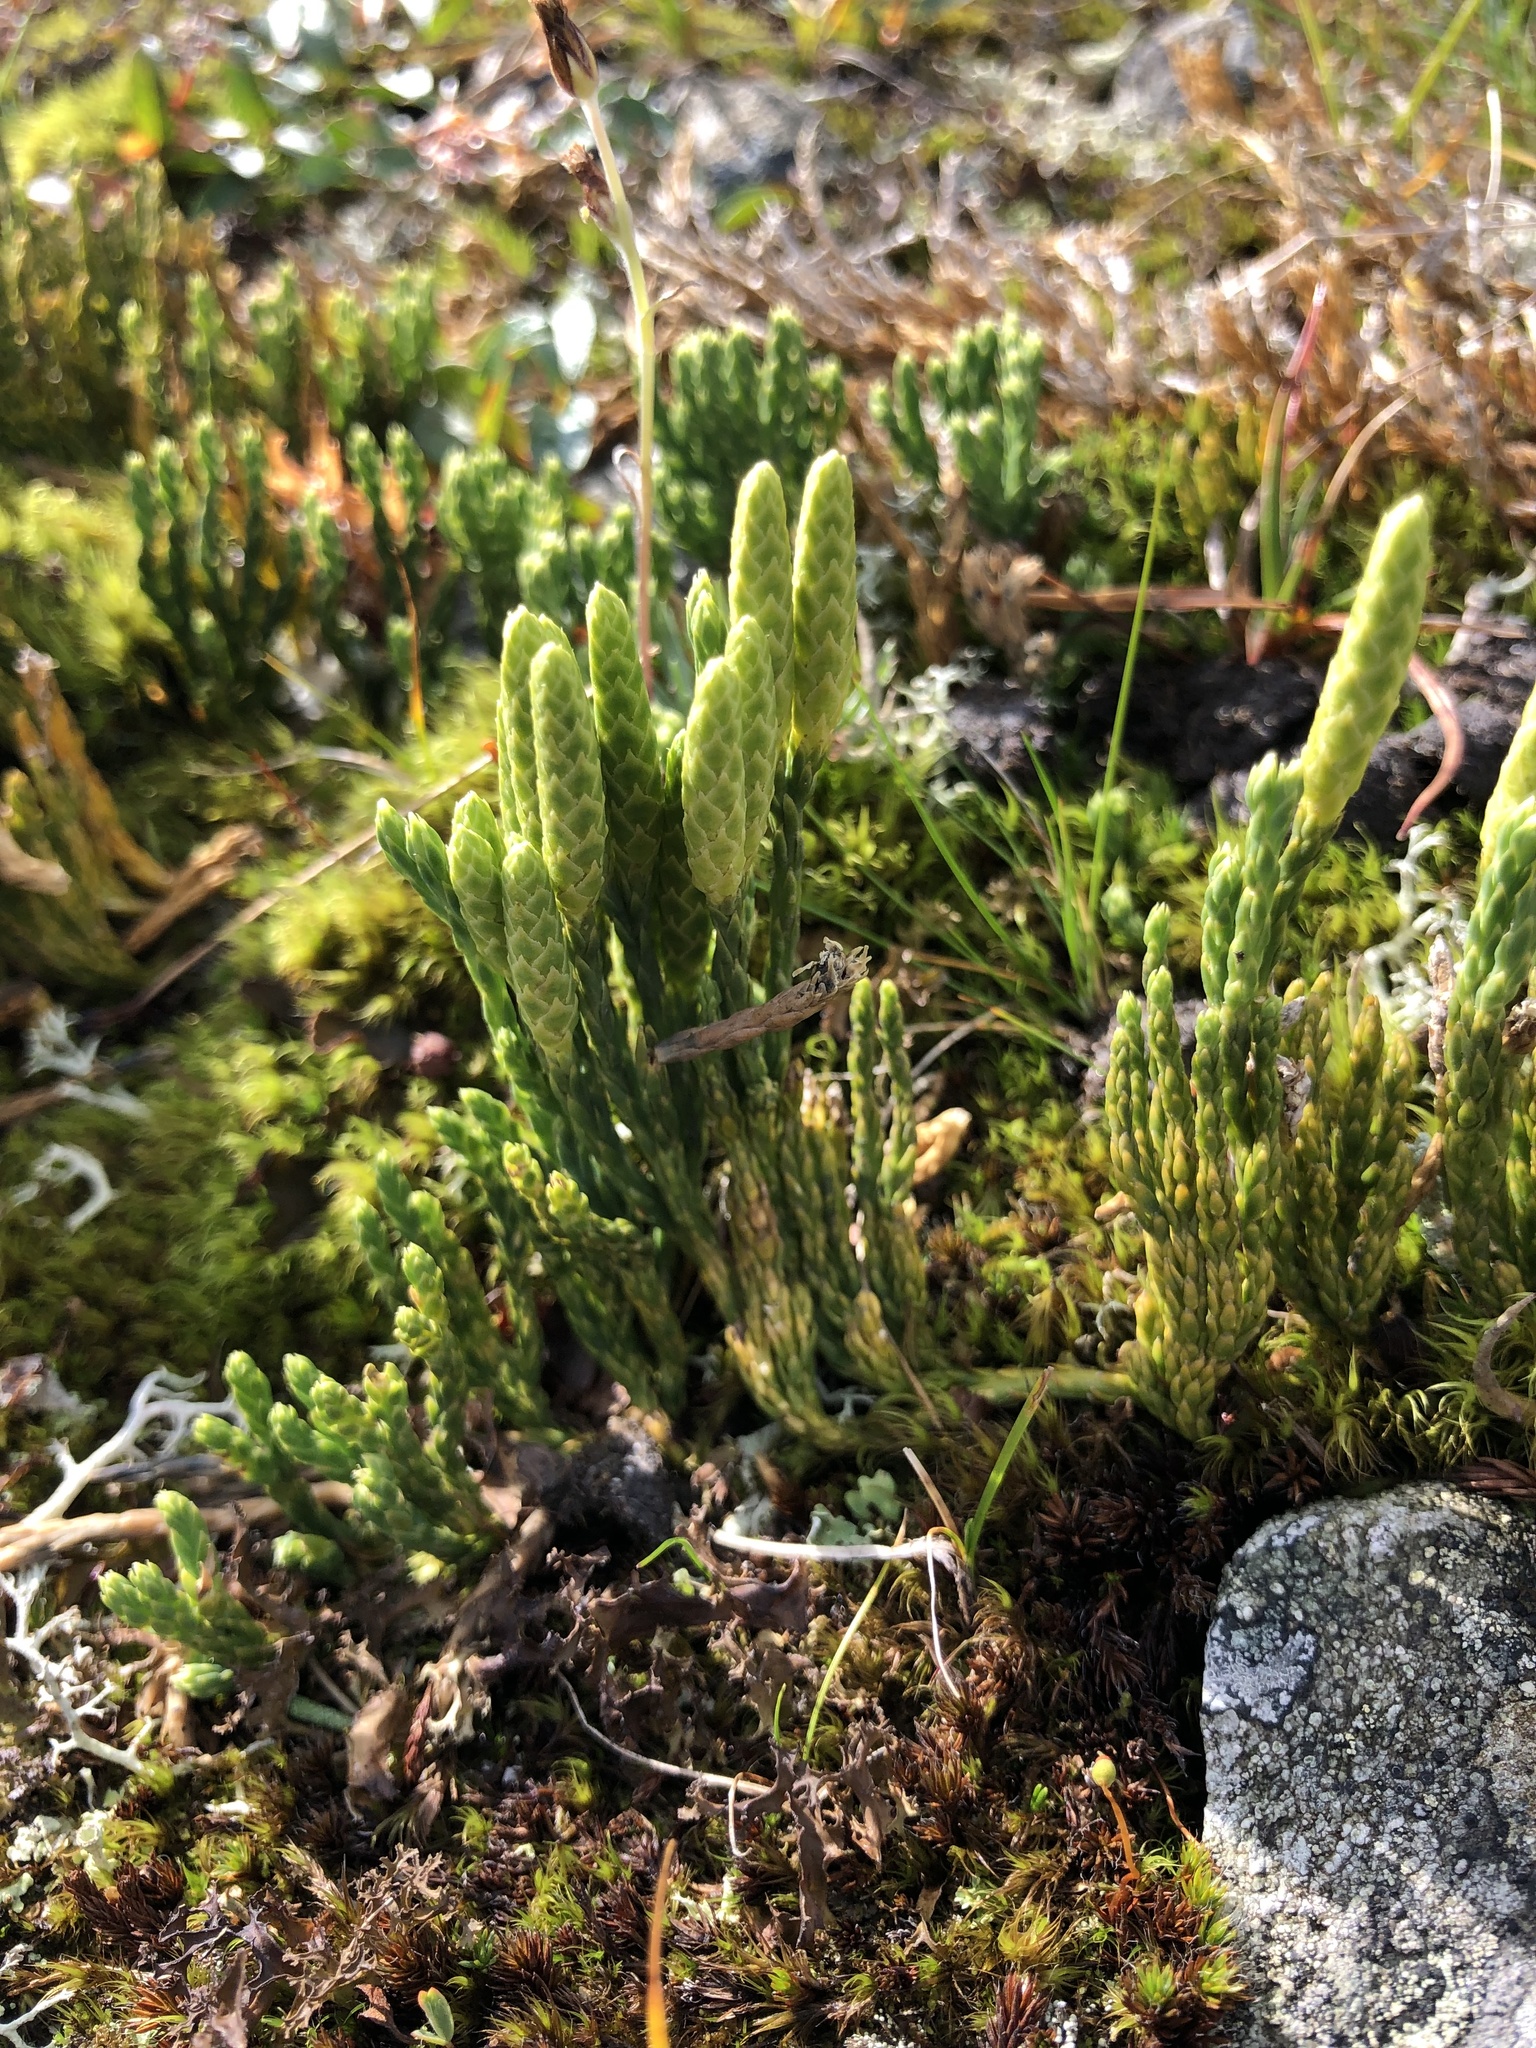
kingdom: Plantae
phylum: Tracheophyta
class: Lycopodiopsida
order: Lycopodiales
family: Lycopodiaceae
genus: Diphasiastrum
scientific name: Diphasiastrum alpinum
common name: Alpine clubmoss
